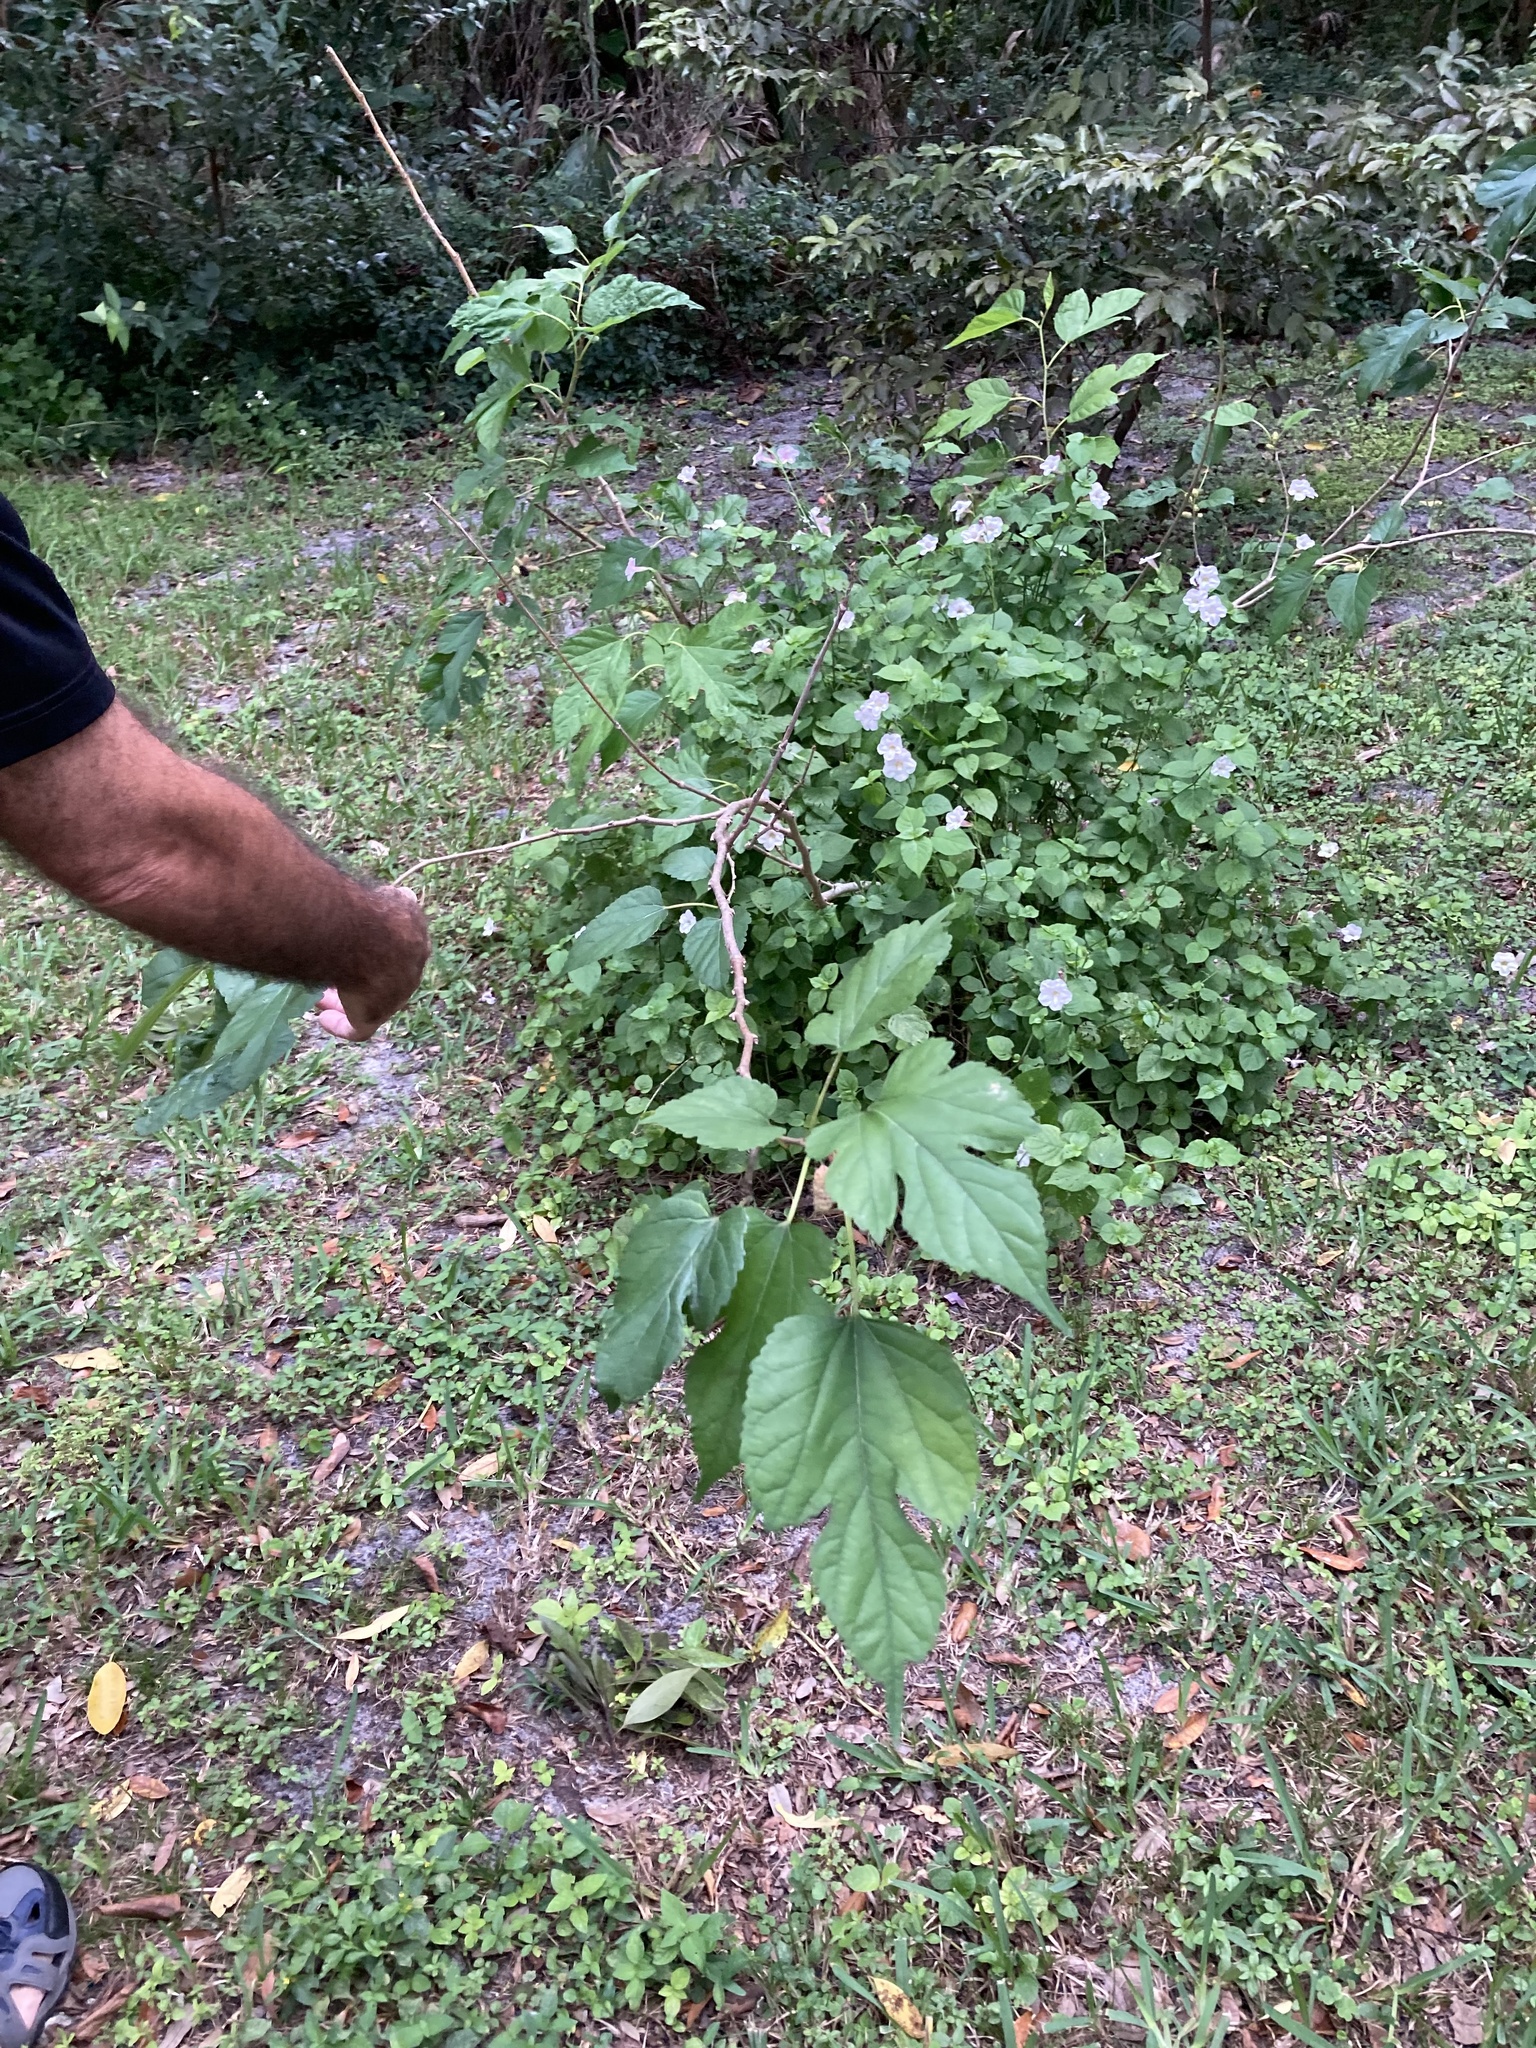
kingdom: Plantae
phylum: Tracheophyta
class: Magnoliopsida
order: Lamiales
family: Acanthaceae
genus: Asystasia
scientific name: Asystasia gangetica
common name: Chinese violet
